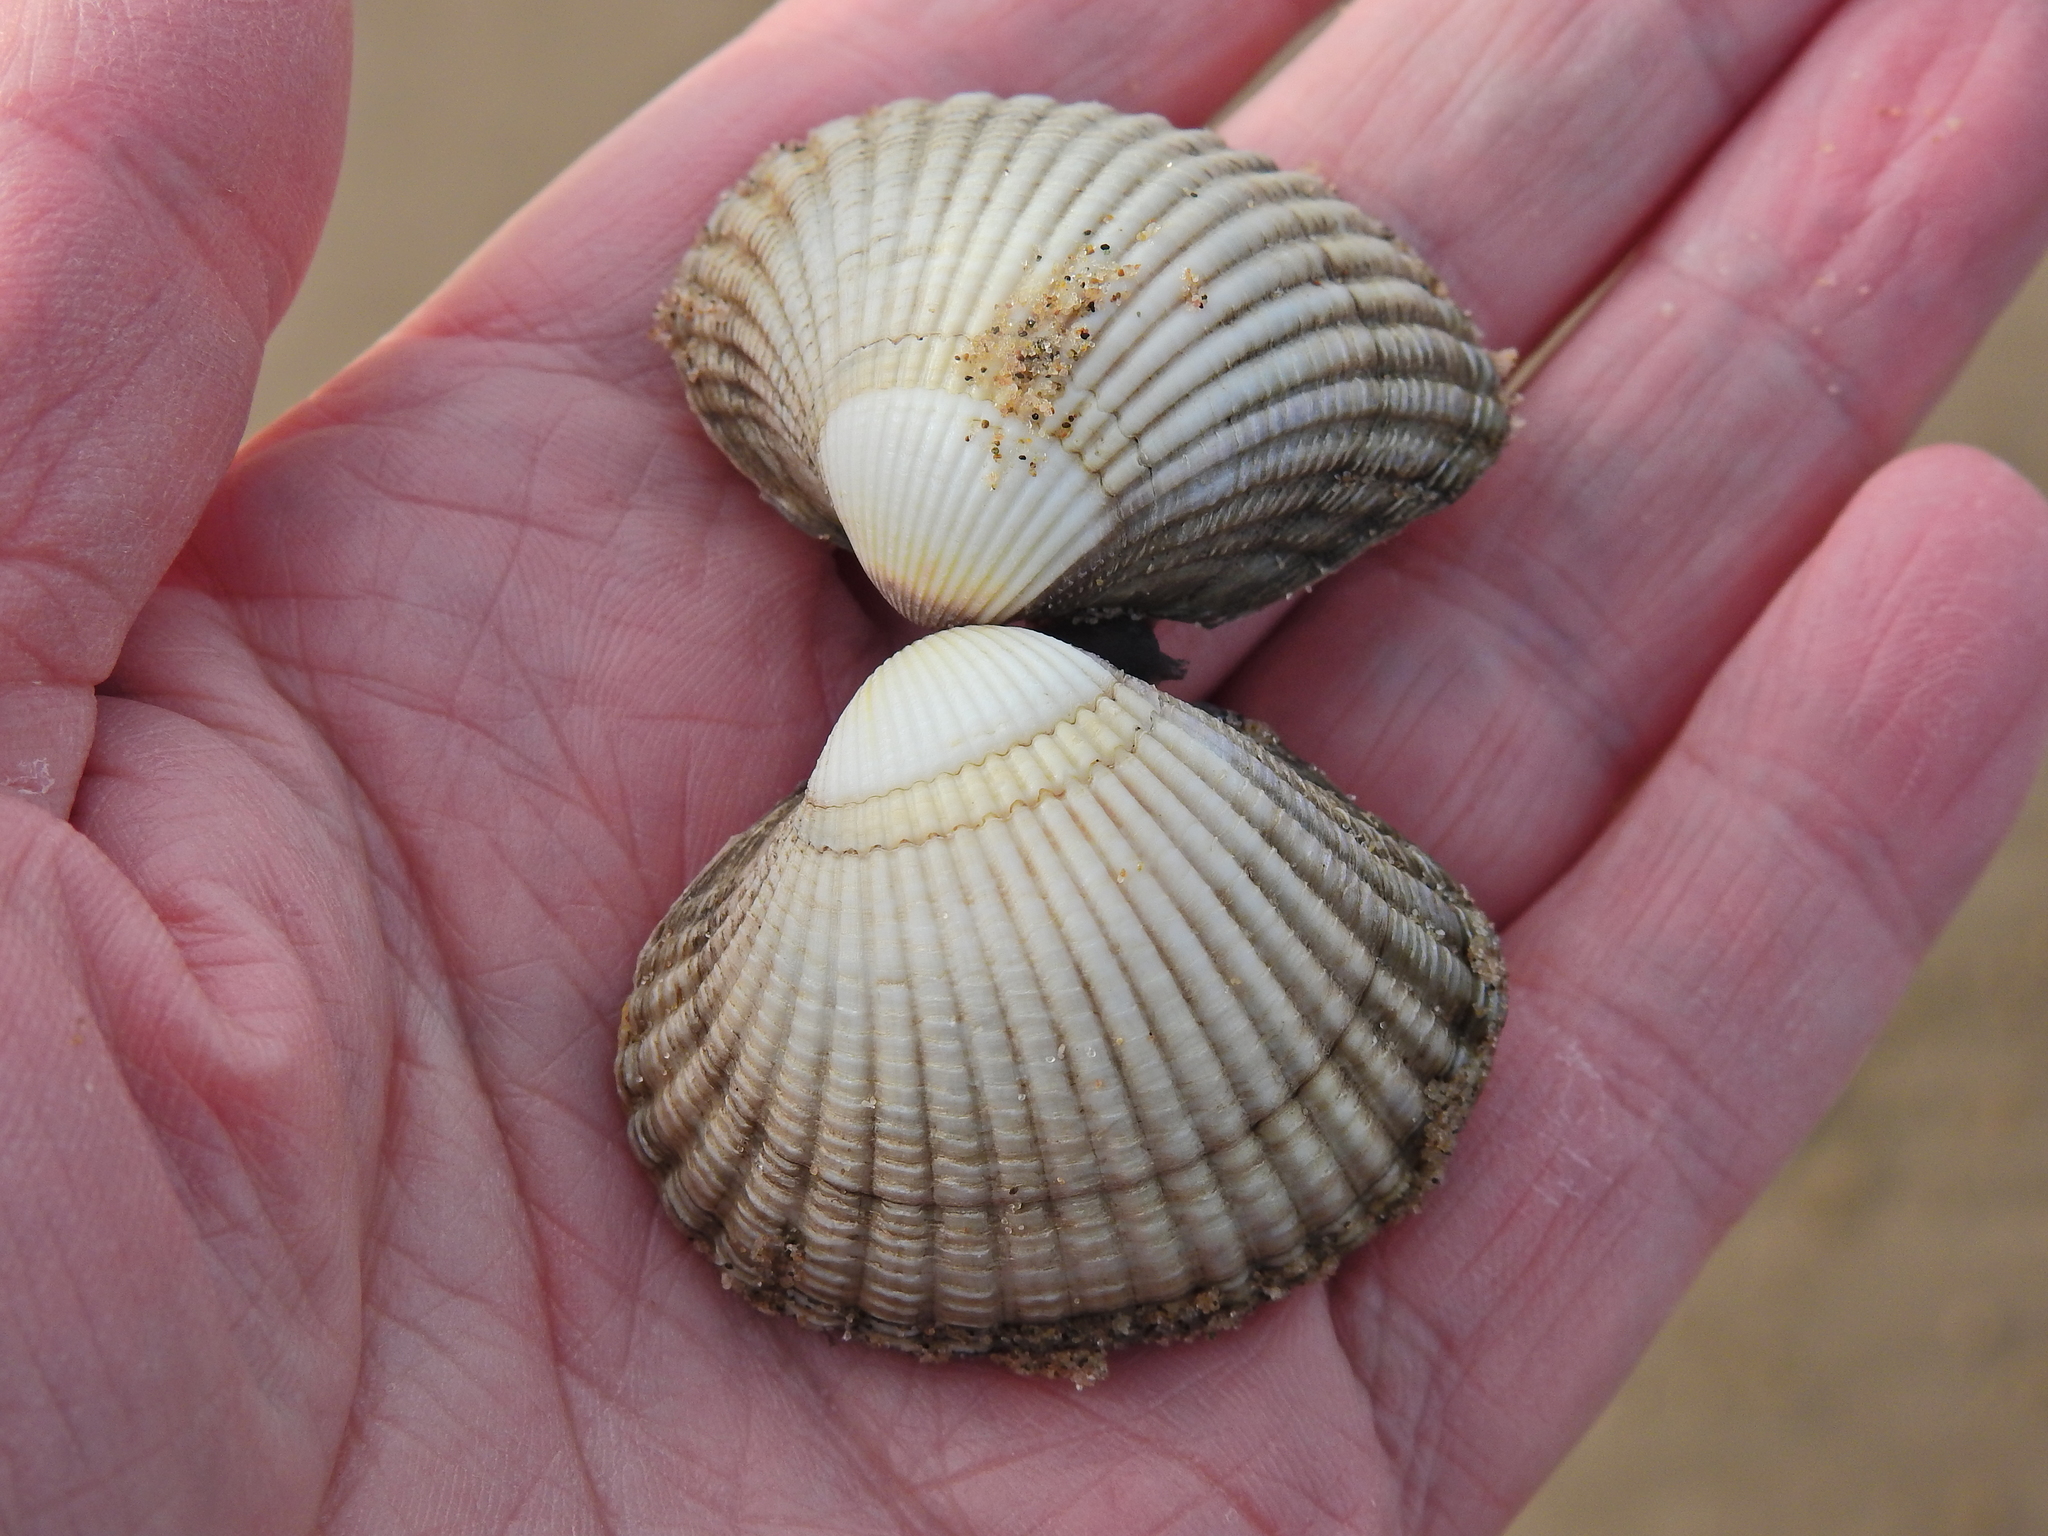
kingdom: Animalia
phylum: Mollusca
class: Bivalvia
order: Cardiida
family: Cardiidae
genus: Cerastoderma
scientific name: Cerastoderma edule
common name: Common cockle
